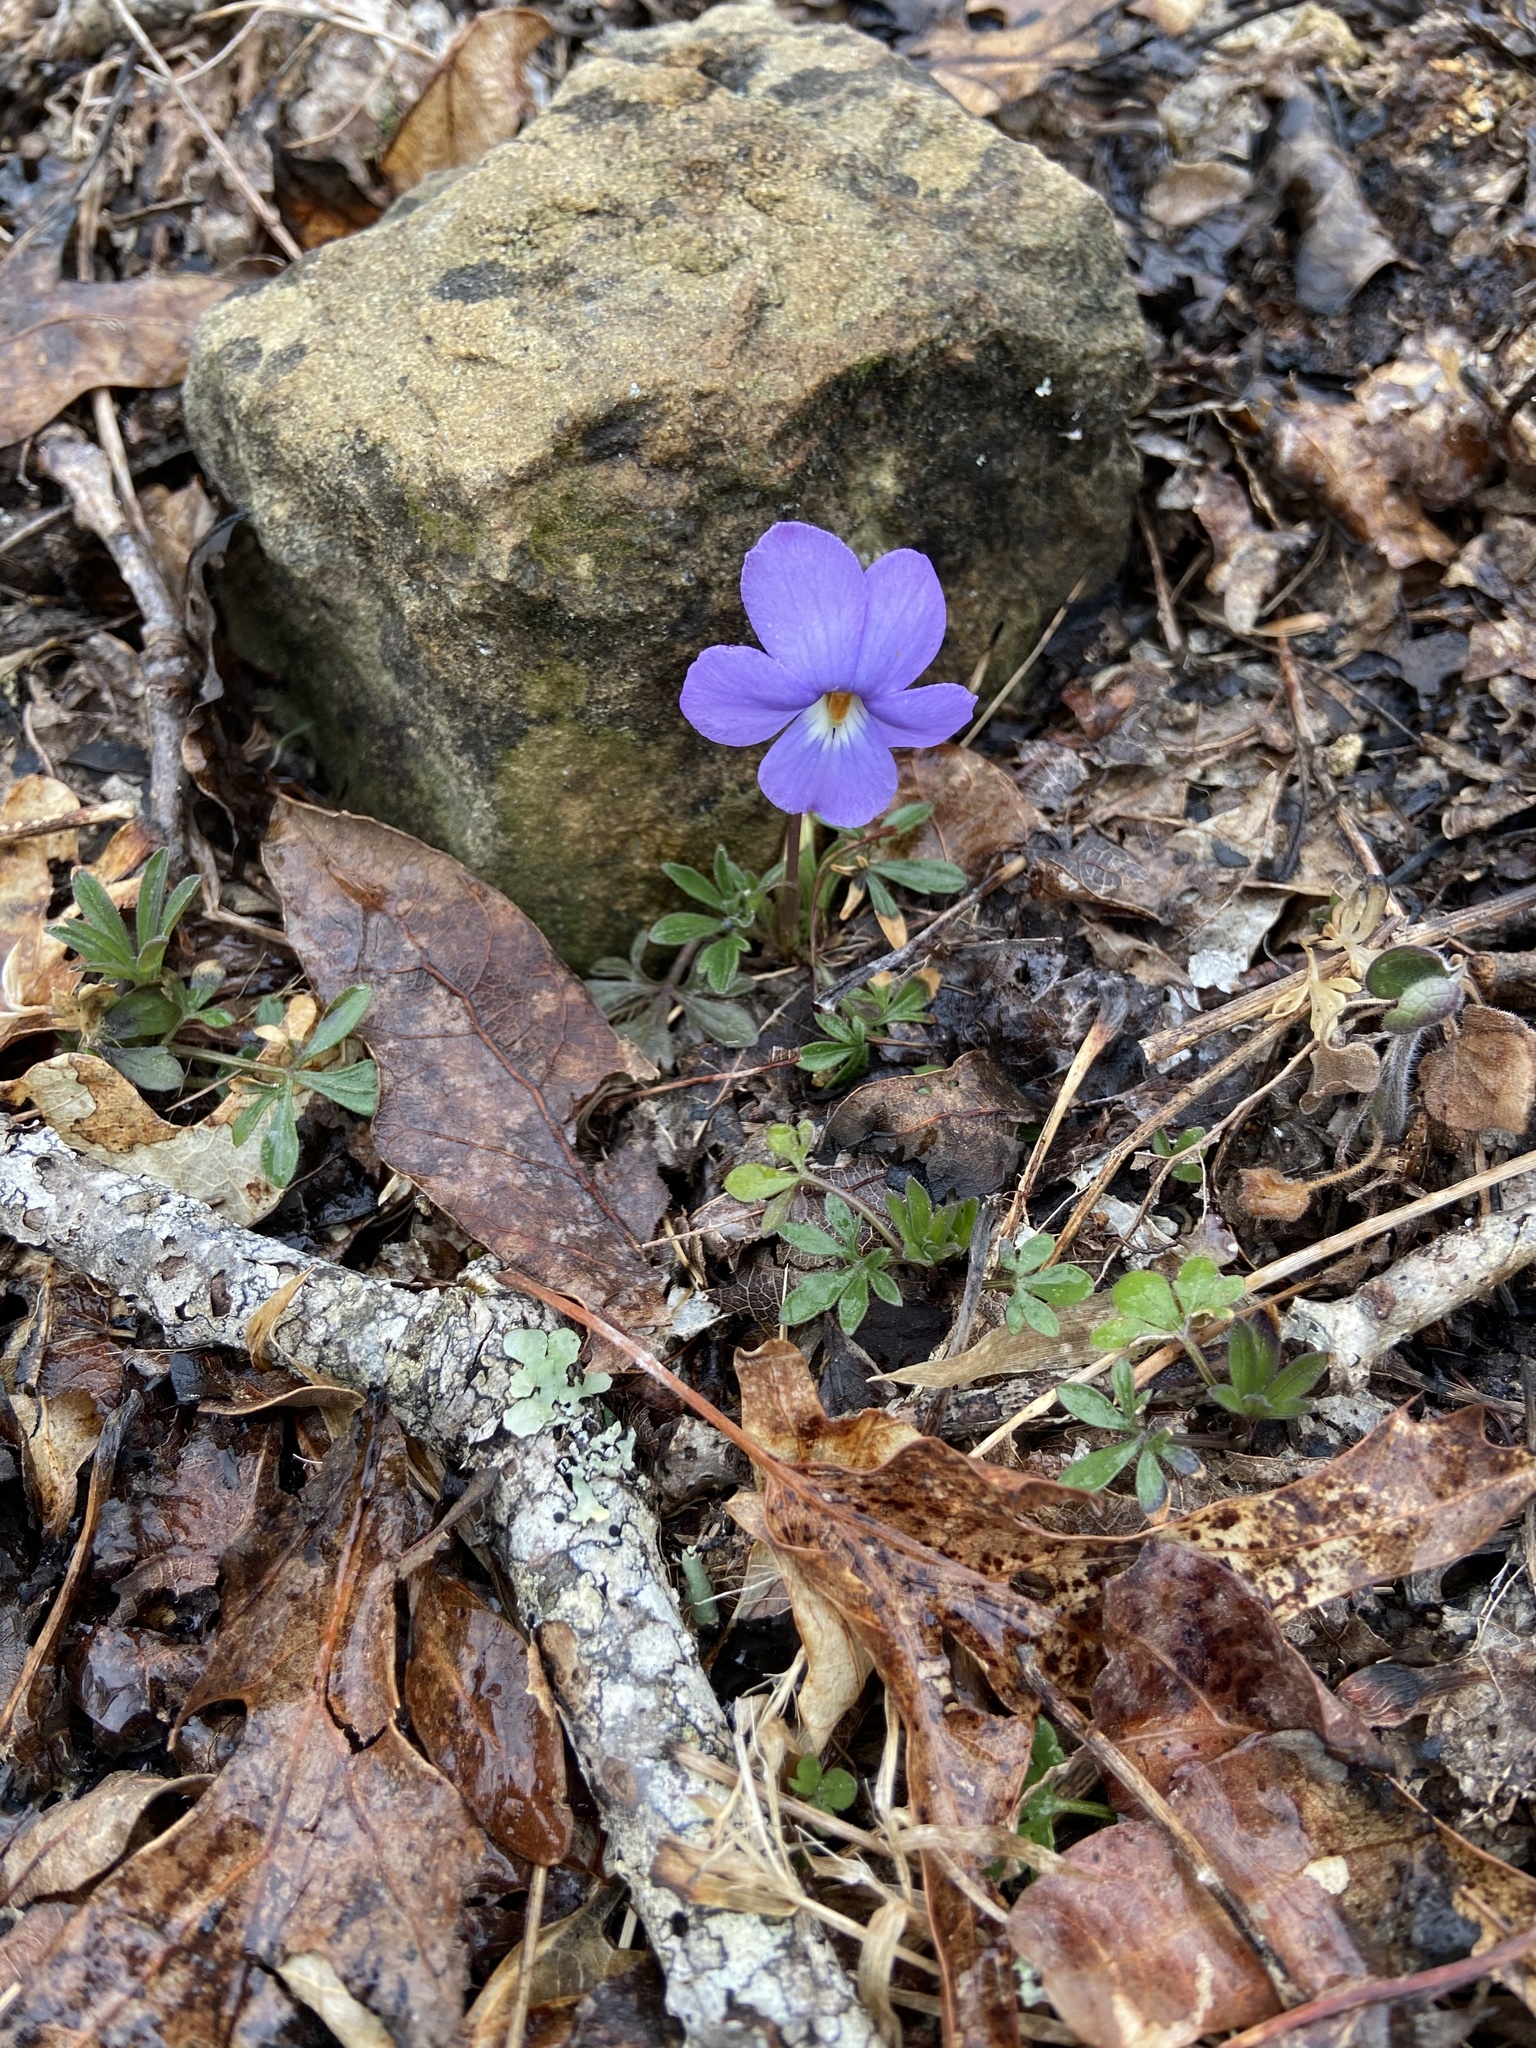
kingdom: Plantae
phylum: Tracheophyta
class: Magnoliopsida
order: Malpighiales
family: Violaceae
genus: Viola
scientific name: Viola pedata
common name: Pansy violet
